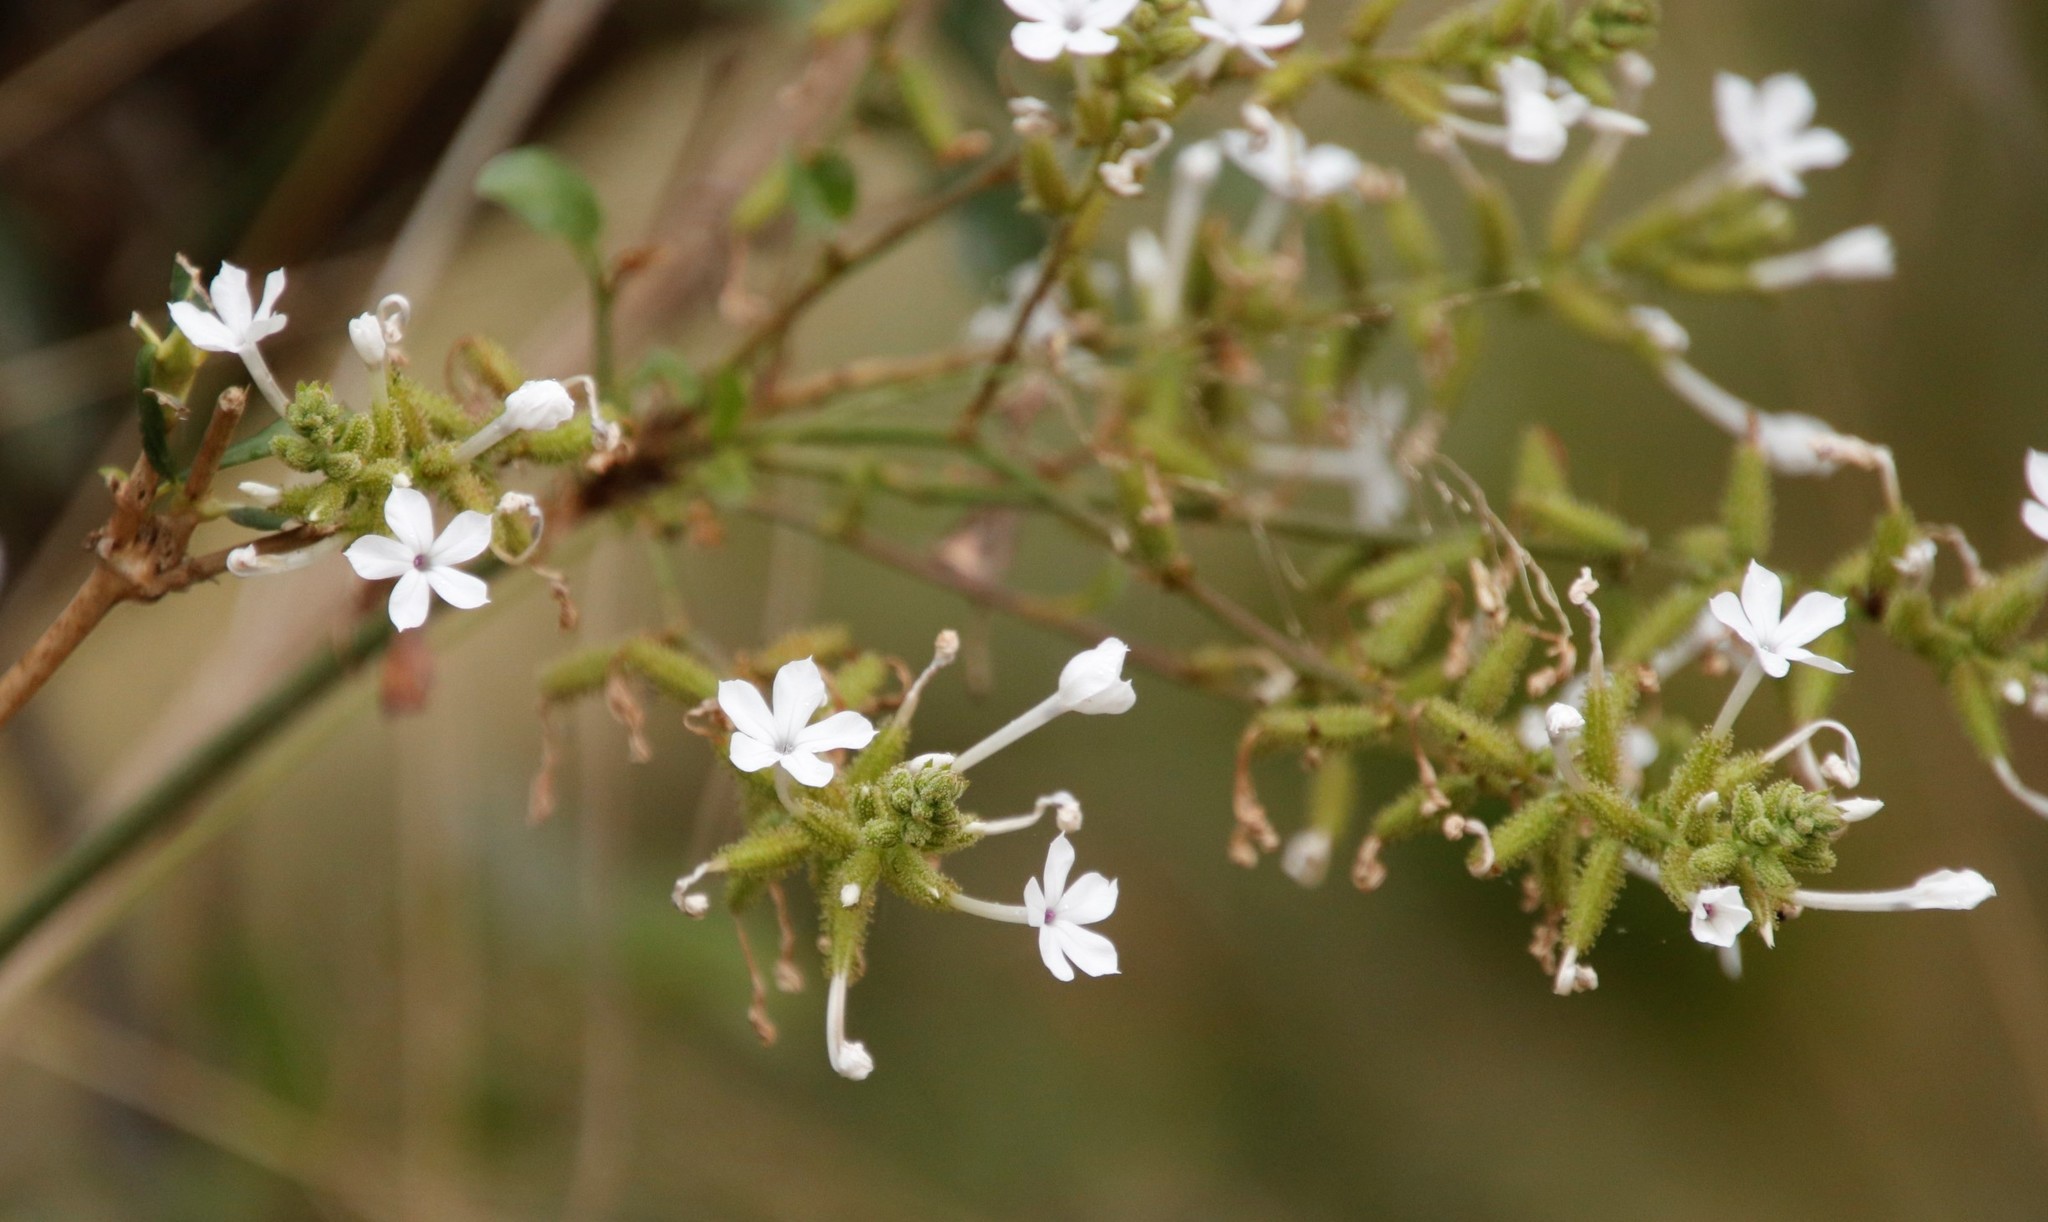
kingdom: Plantae
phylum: Tracheophyta
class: Magnoliopsida
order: Caryophyllales
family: Plumbaginaceae
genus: Plumbago
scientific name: Plumbago zeylanica
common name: Doctorbush
